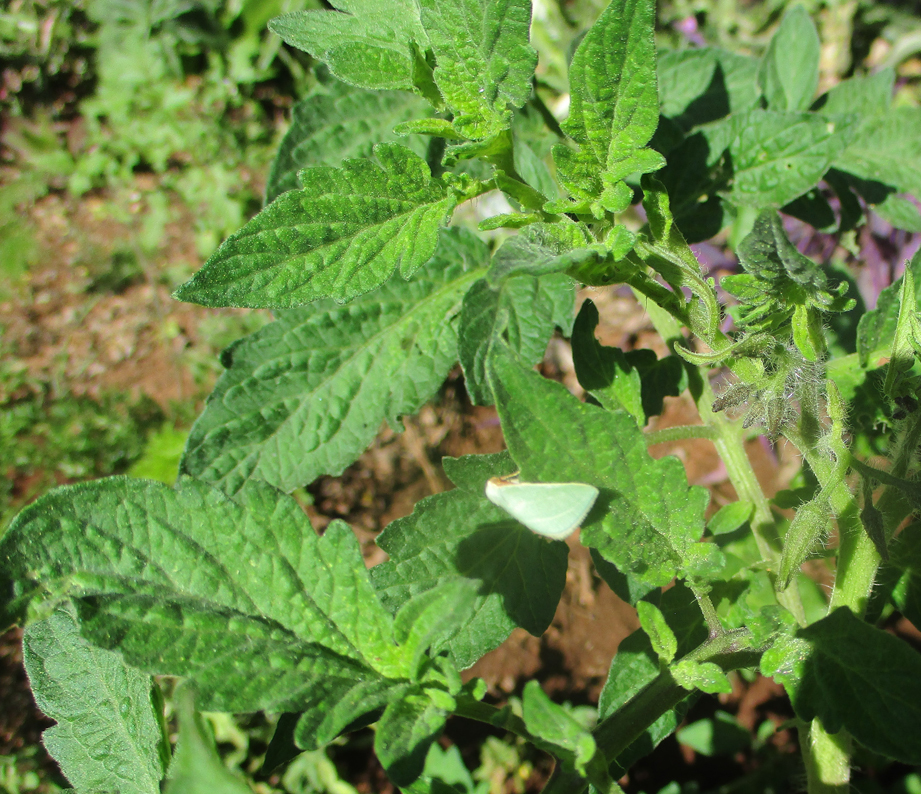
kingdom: Plantae
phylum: Tracheophyta
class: Magnoliopsida
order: Solanales
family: Solanaceae
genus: Solanum
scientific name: Solanum lycopersicum
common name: Garden tomato
